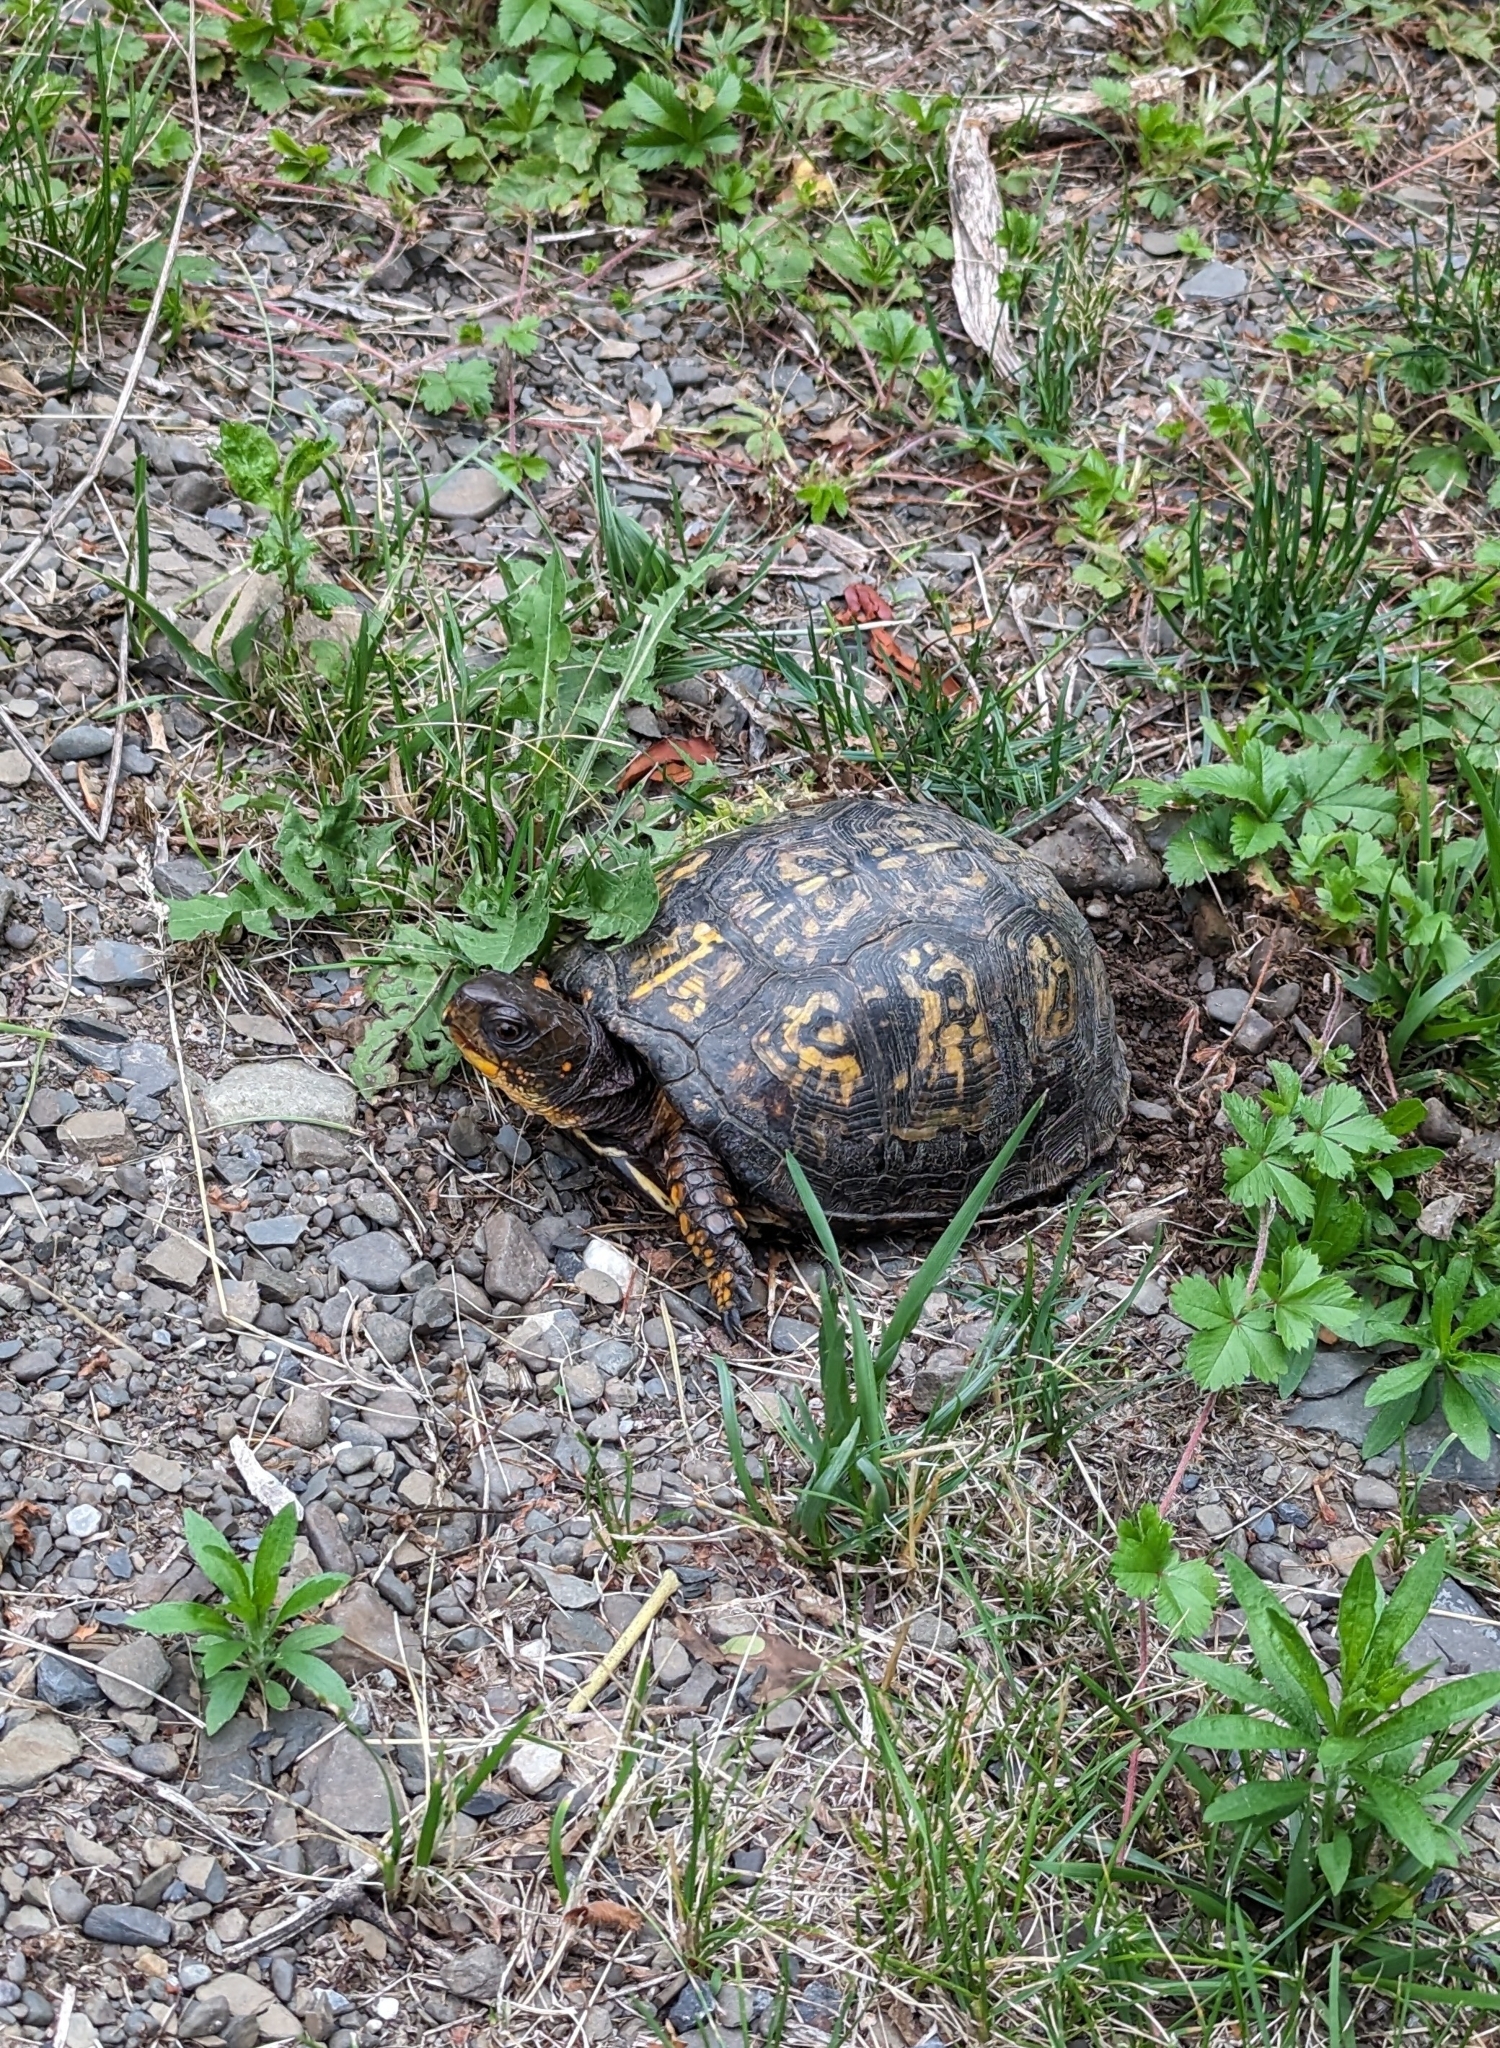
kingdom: Animalia
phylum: Chordata
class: Testudines
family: Emydidae
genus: Terrapene
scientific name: Terrapene carolina
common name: Common box turtle
